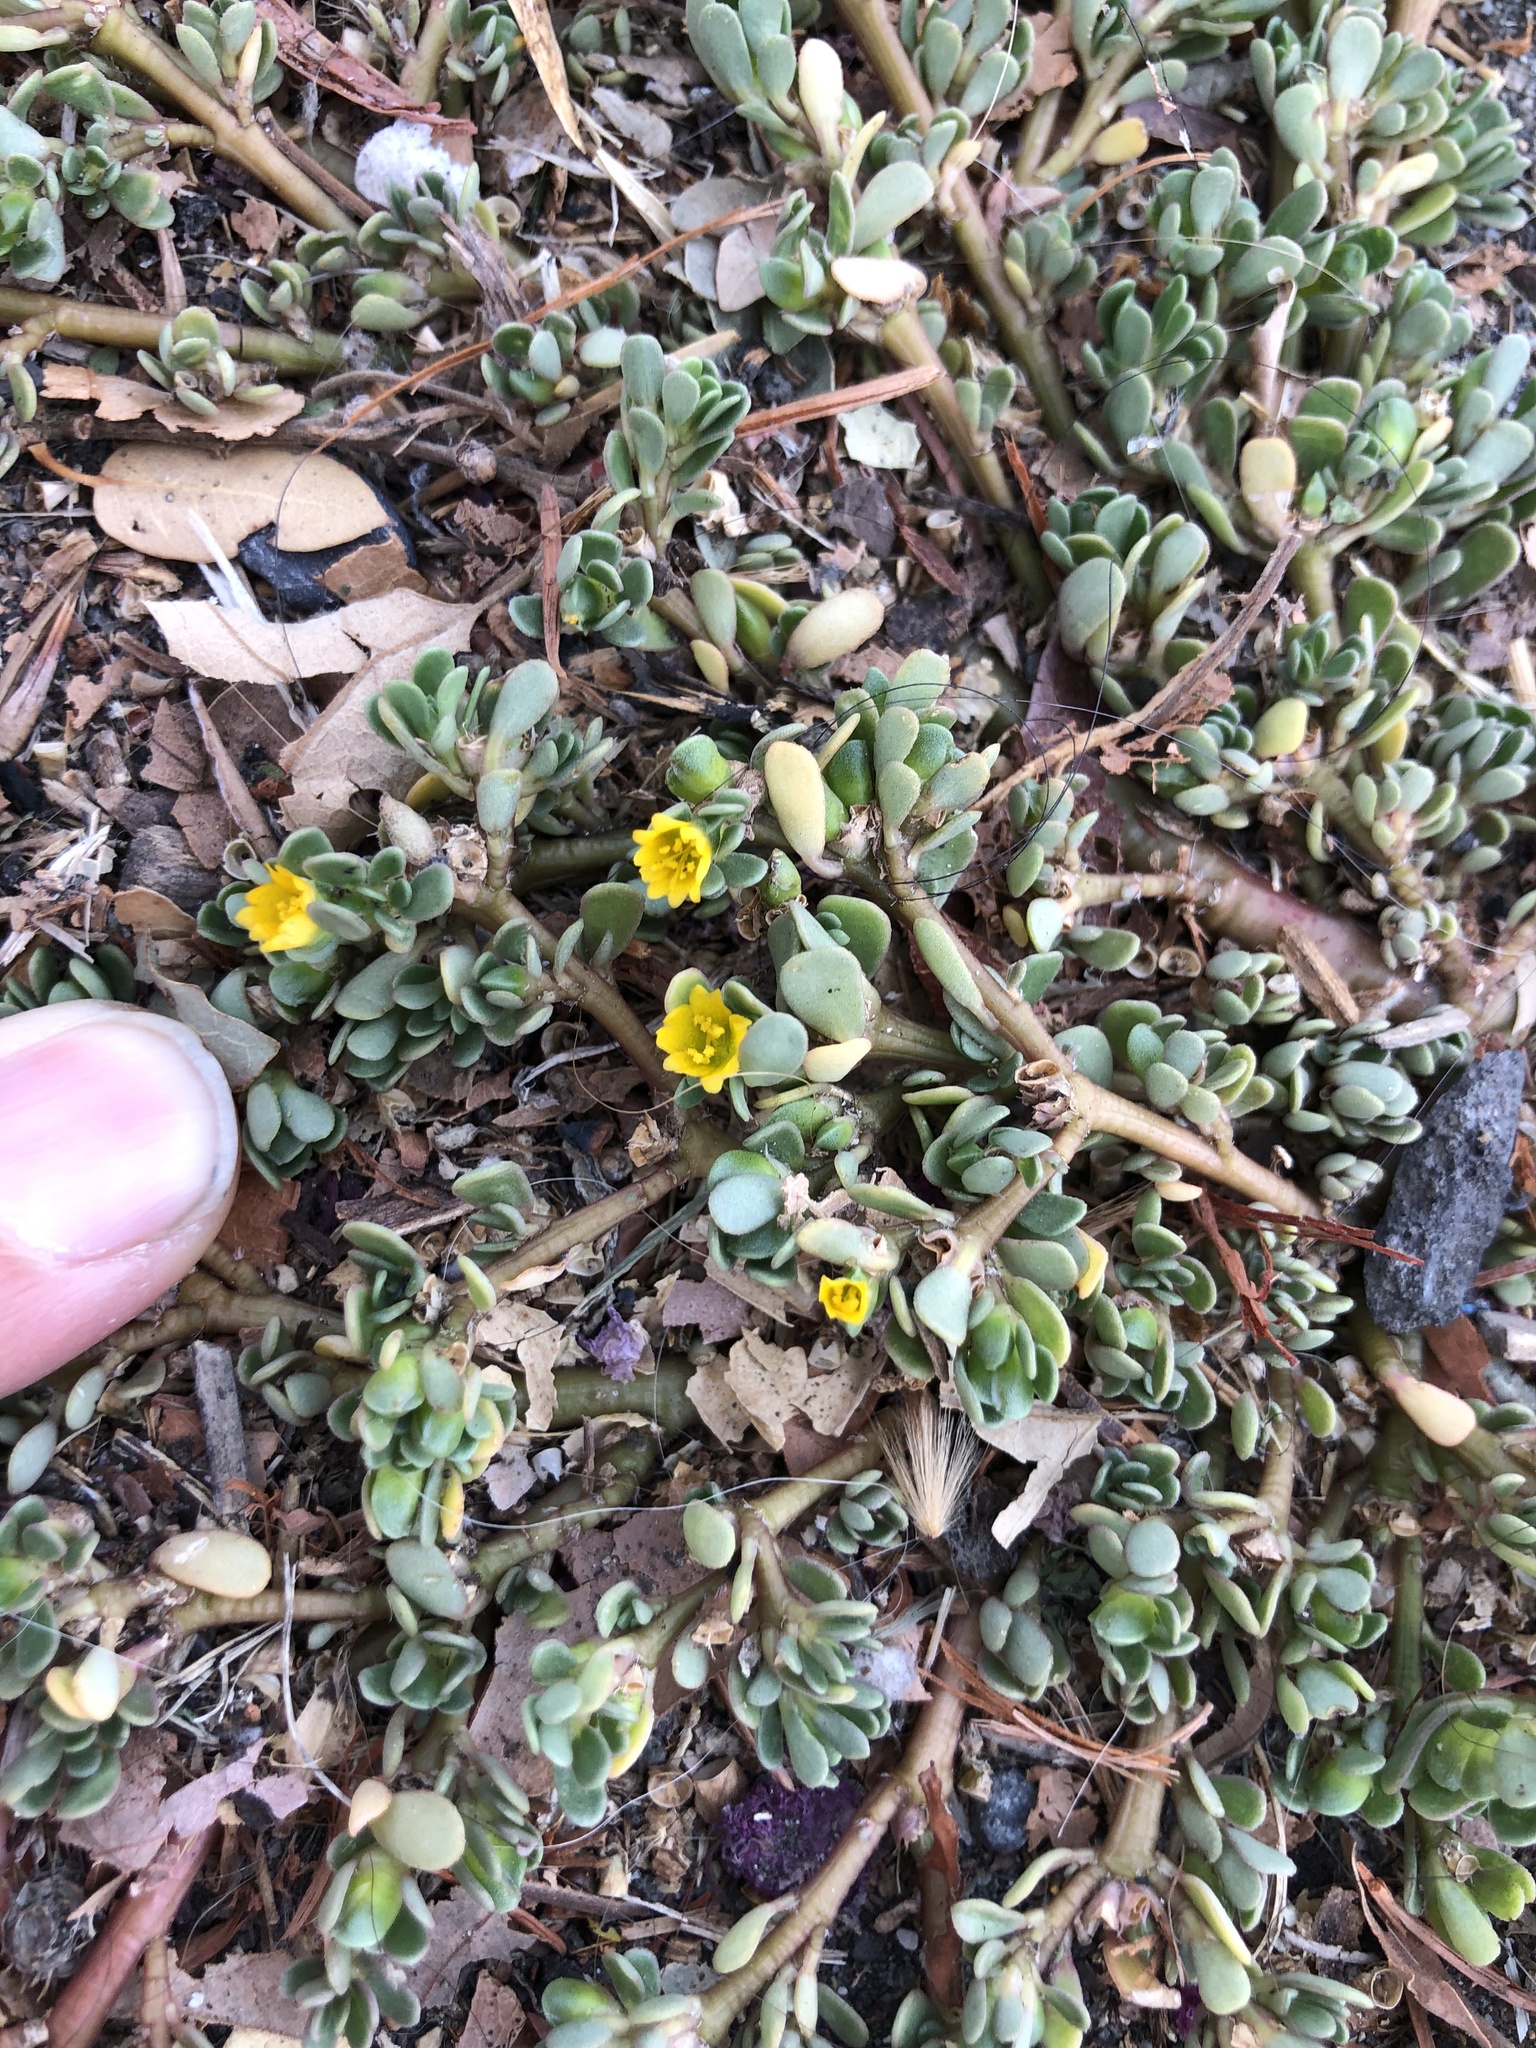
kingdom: Plantae
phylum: Tracheophyta
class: Magnoliopsida
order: Caryophyllales
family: Portulacaceae
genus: Portulaca
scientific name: Portulaca oleracea
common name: Common purslane
